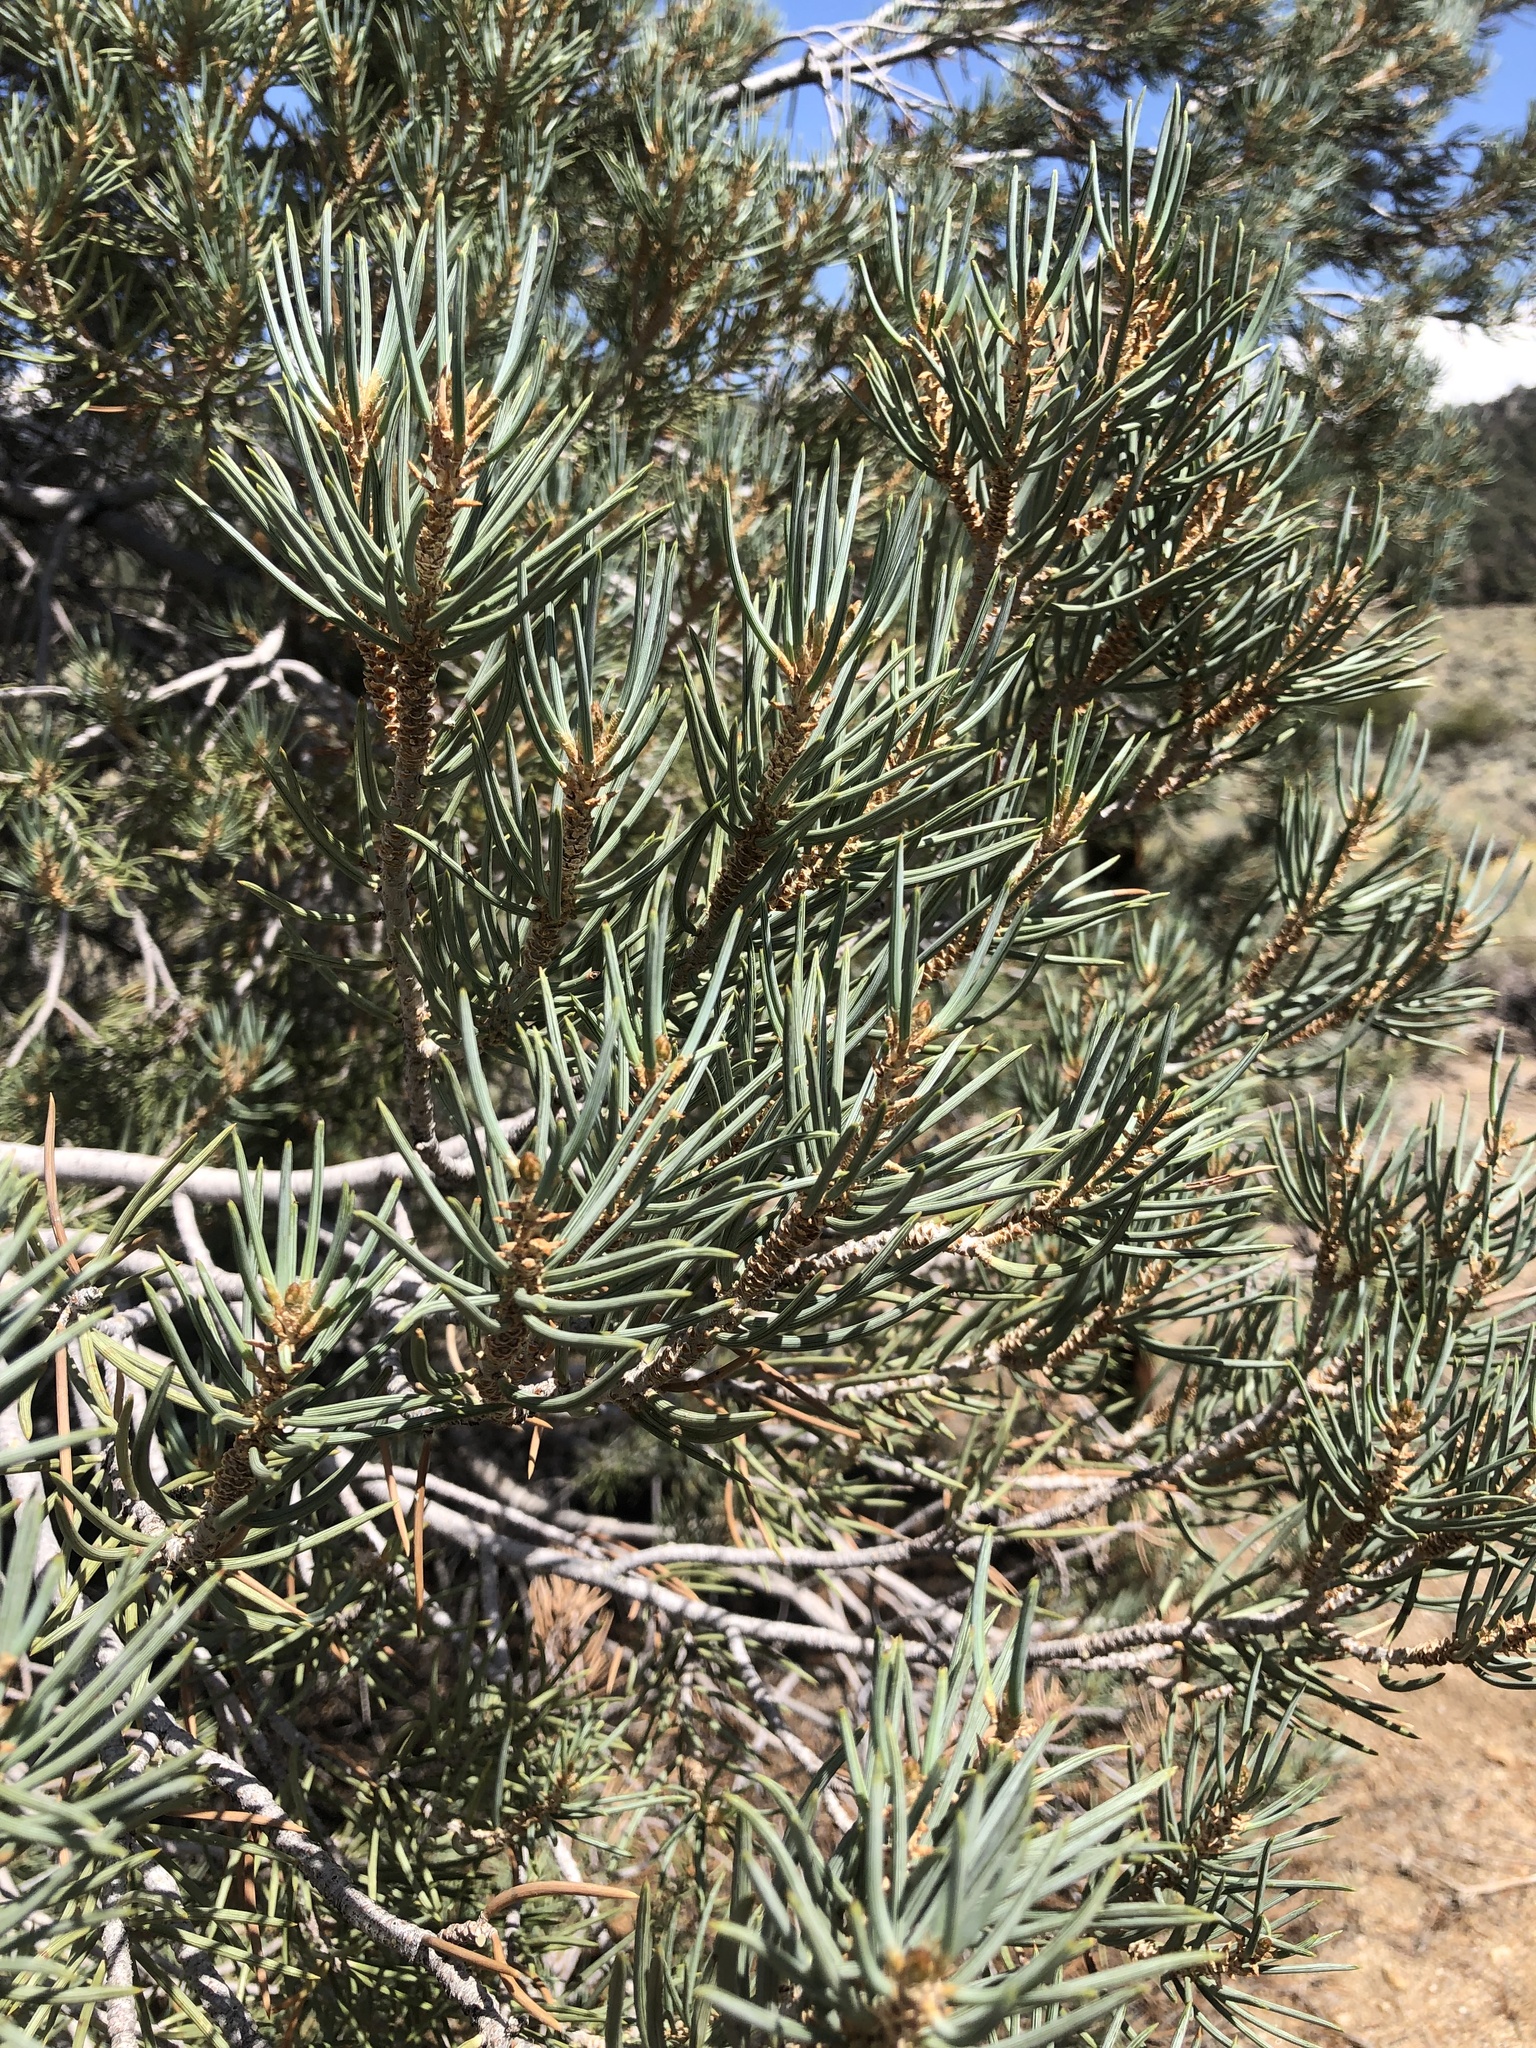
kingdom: Plantae
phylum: Tracheophyta
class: Pinopsida
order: Pinales
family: Pinaceae
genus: Pinus
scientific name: Pinus monophylla
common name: One-leaved nut pine
